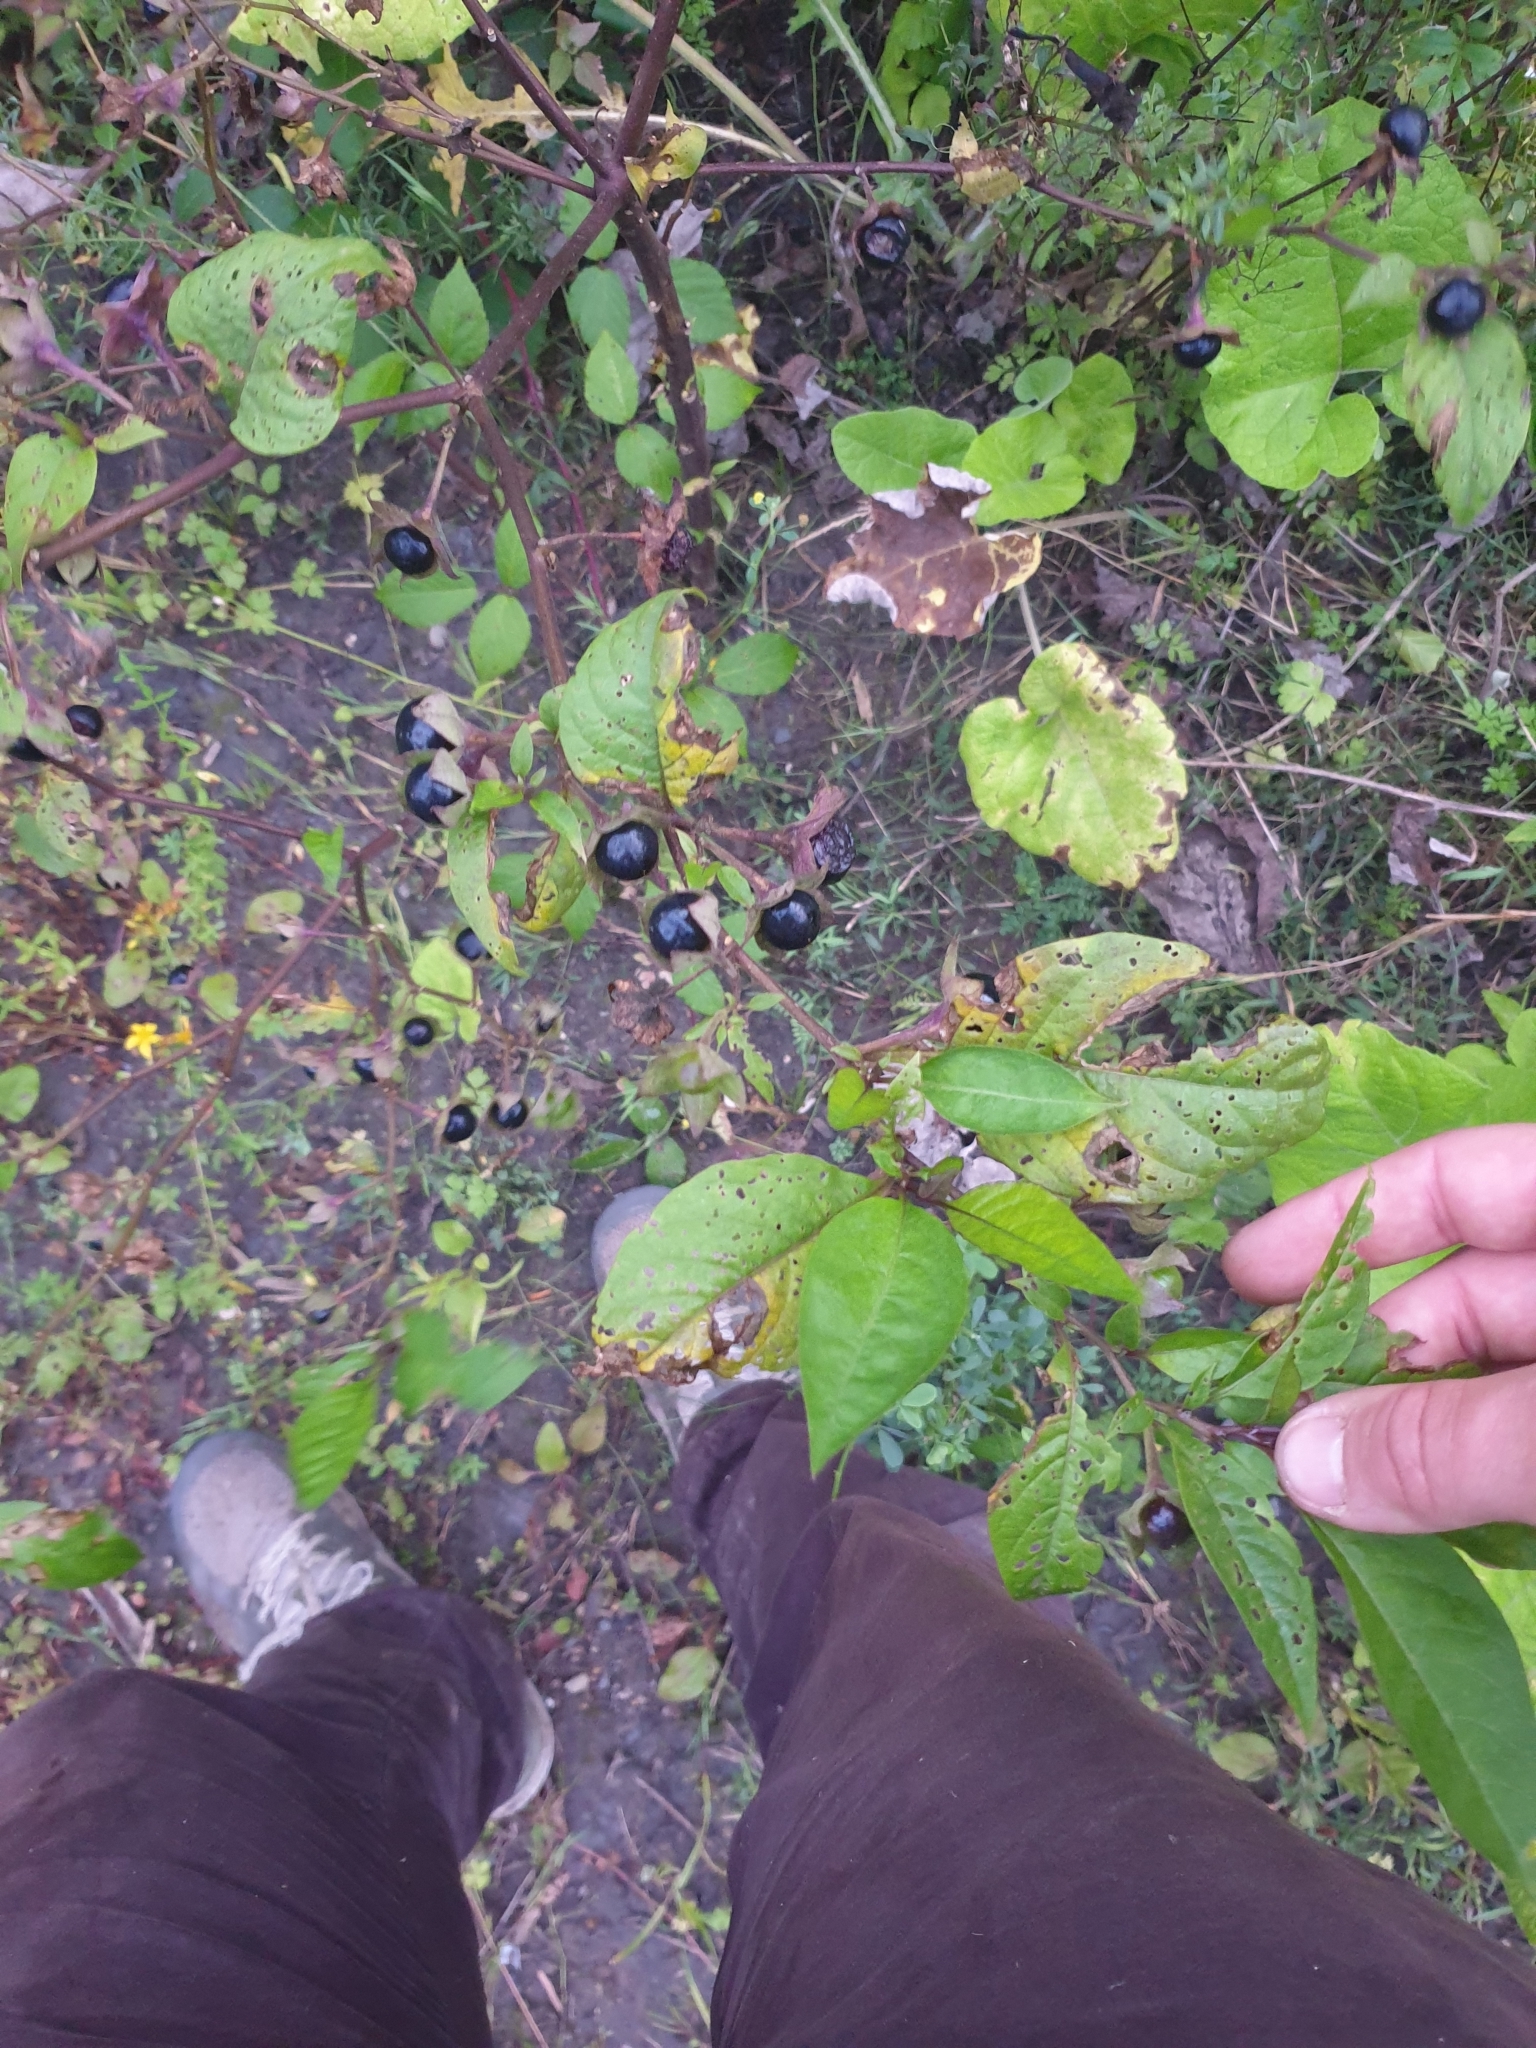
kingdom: Plantae
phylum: Tracheophyta
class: Magnoliopsida
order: Solanales
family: Solanaceae
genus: Atropa
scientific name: Atropa belladonna
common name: Deadly nightshade
